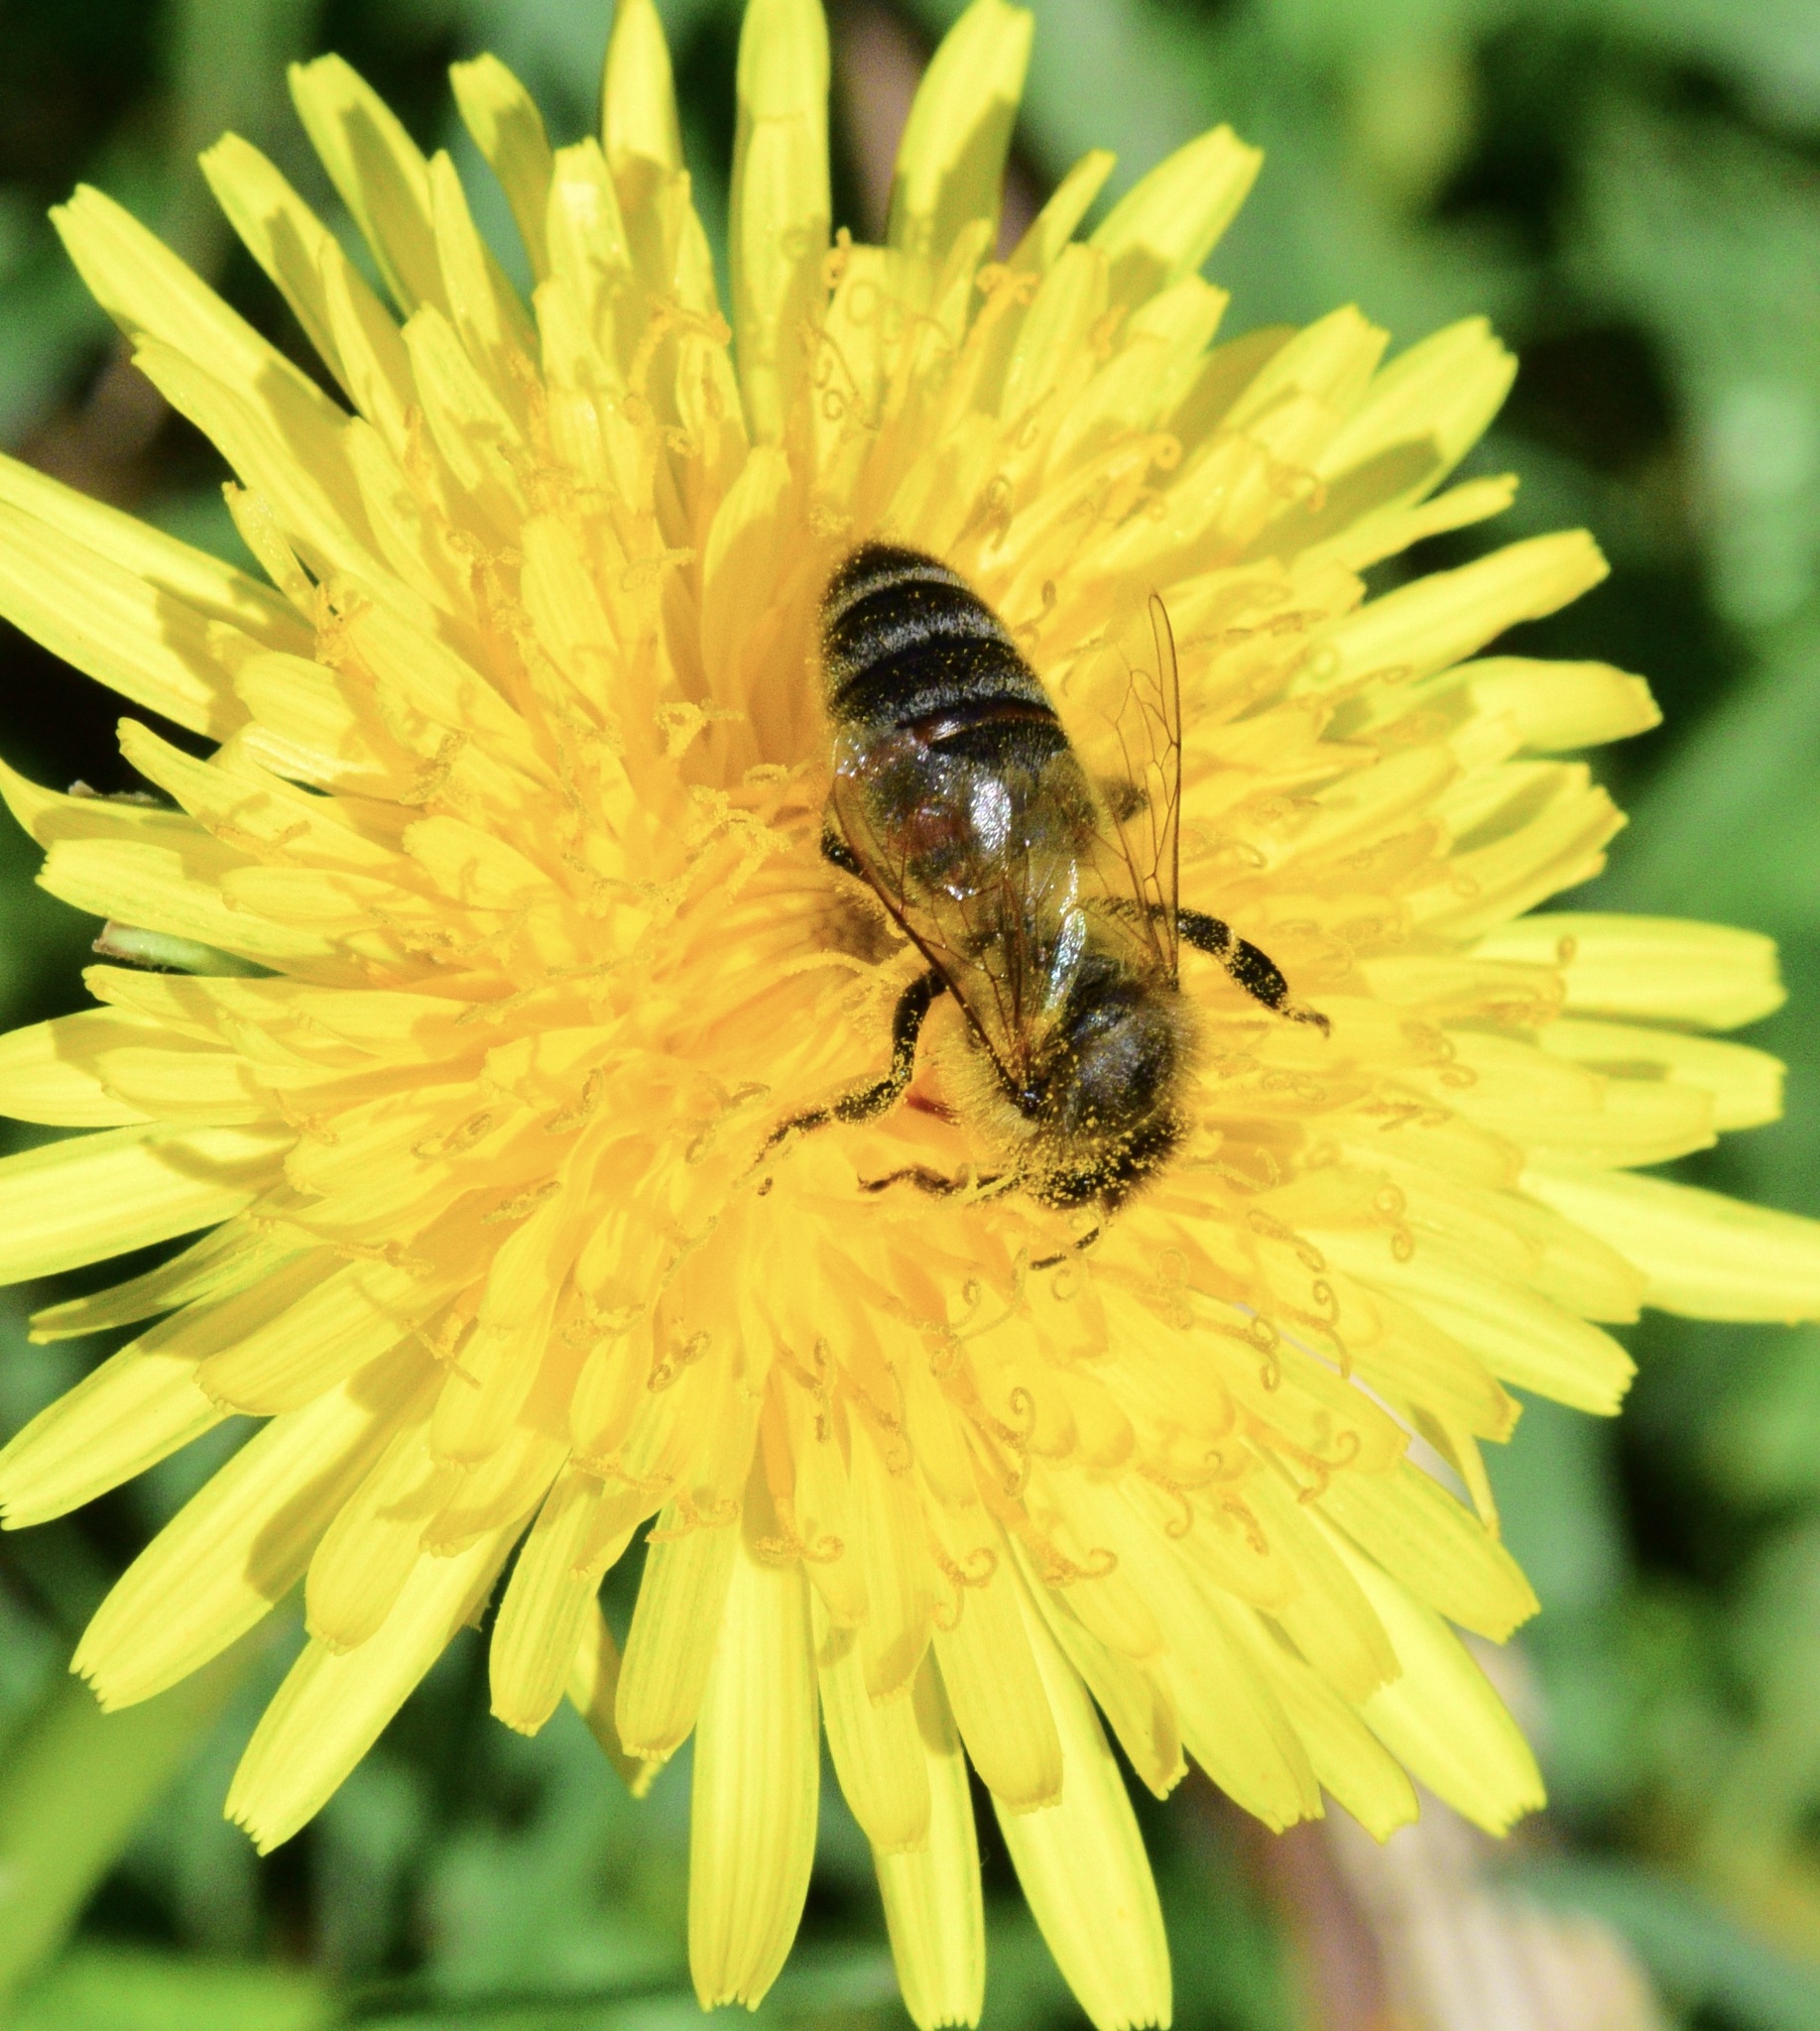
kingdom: Animalia
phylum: Arthropoda
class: Insecta
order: Hymenoptera
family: Apidae
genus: Apis
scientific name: Apis mellifera
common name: Honey bee
